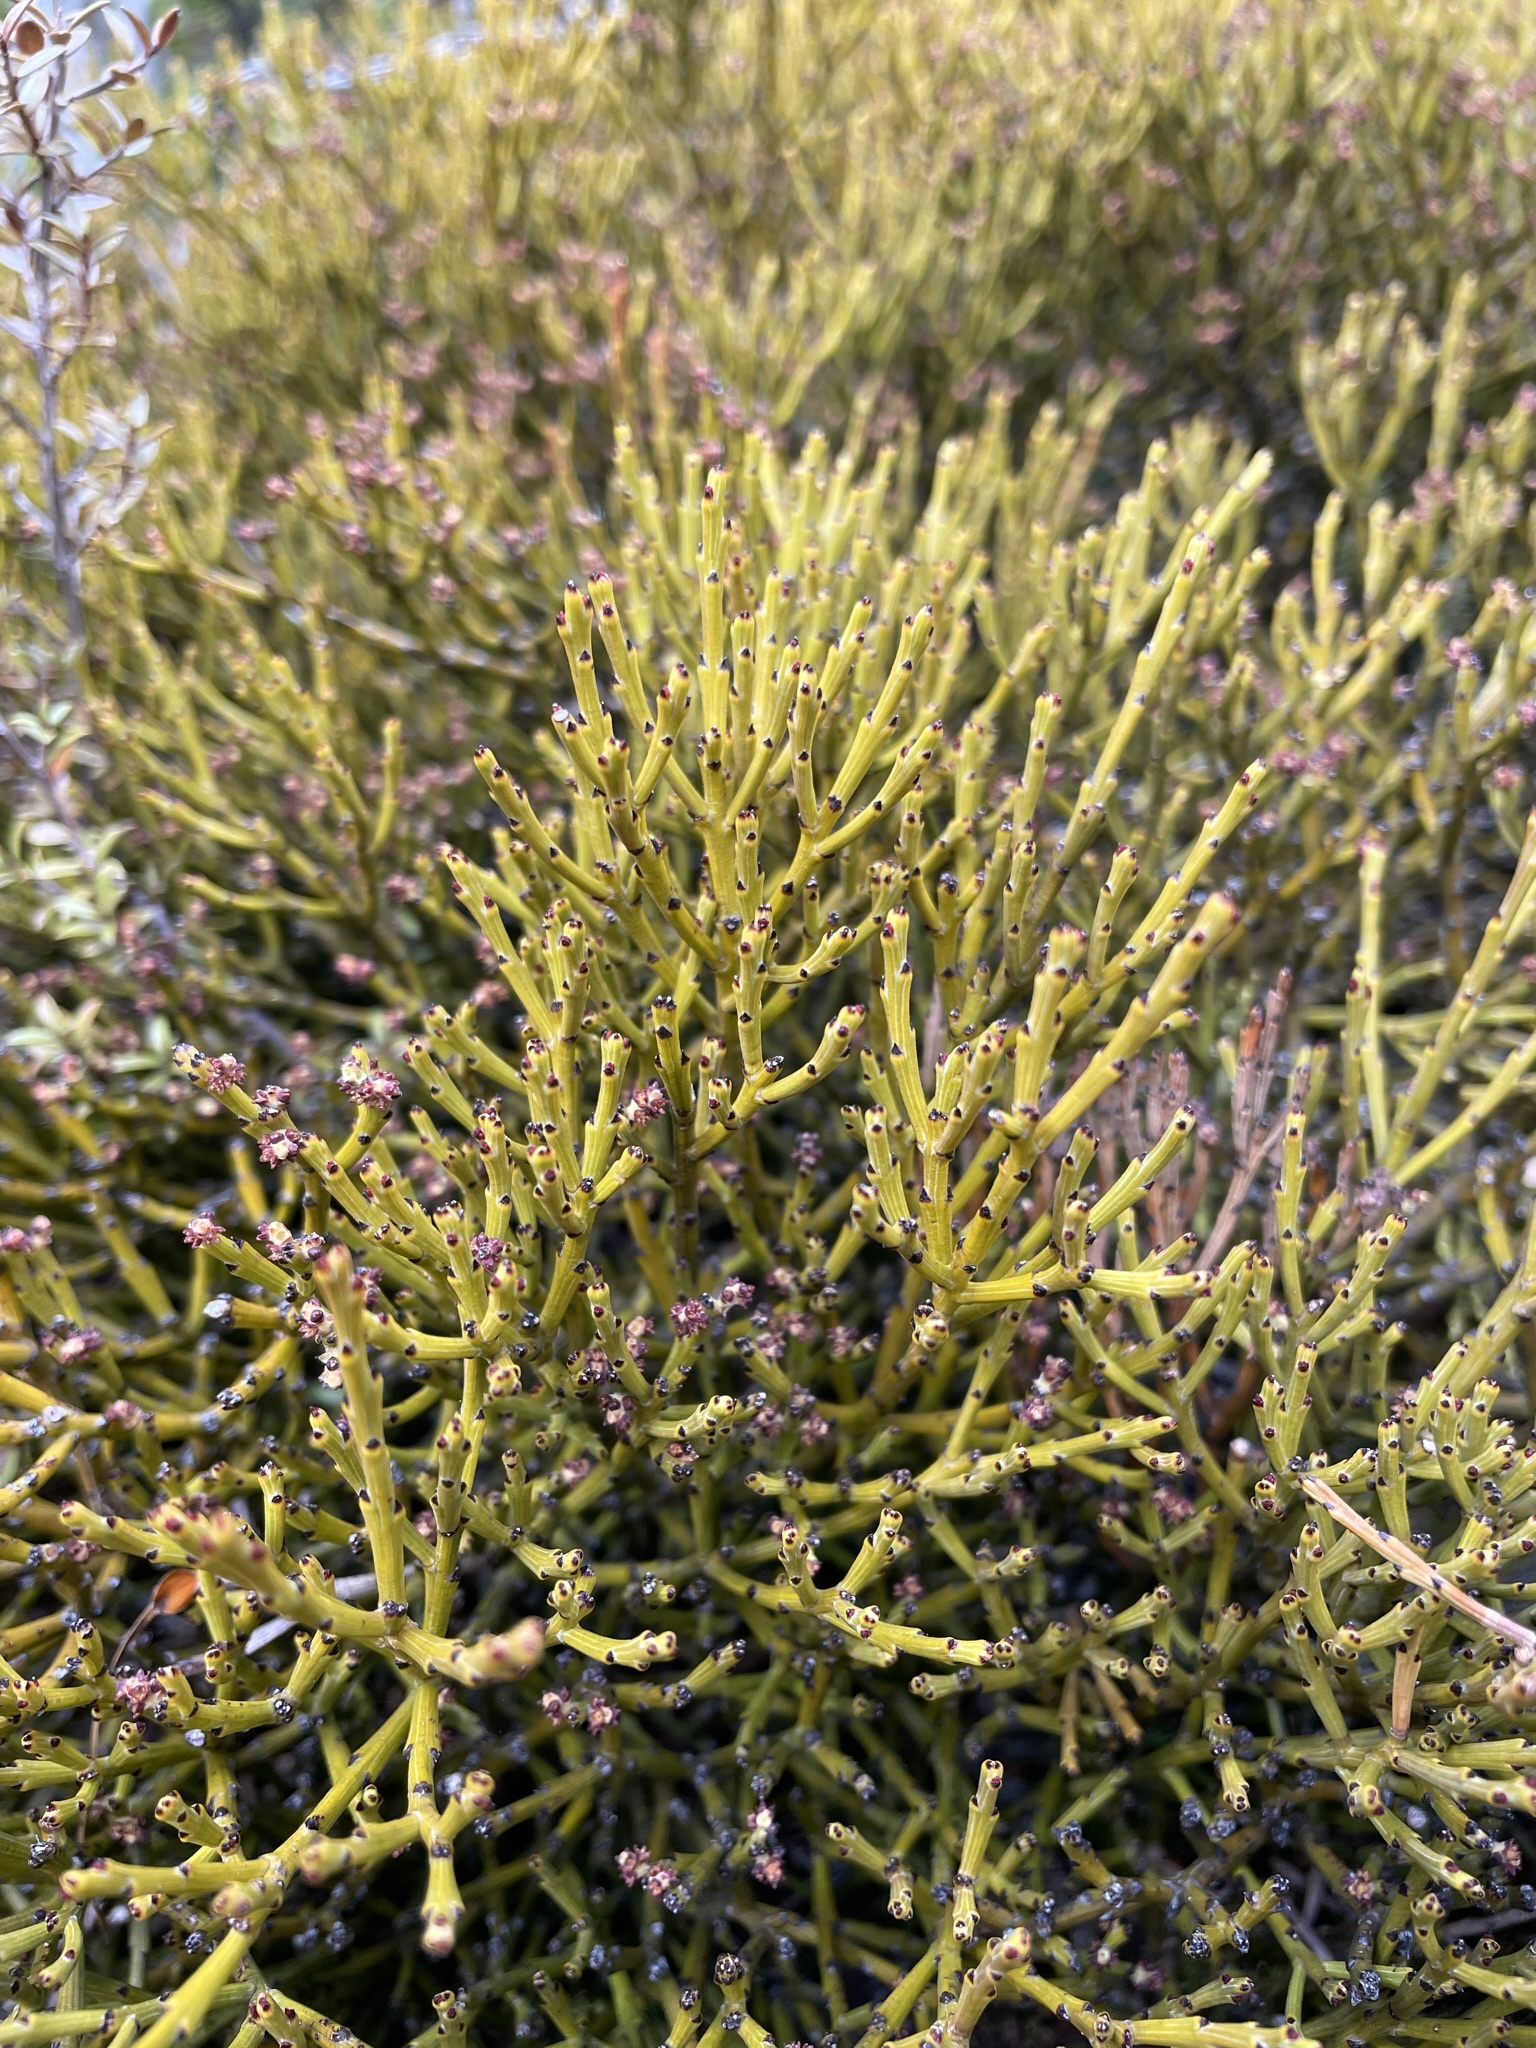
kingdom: Plantae
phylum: Tracheophyta
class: Magnoliopsida
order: Santalales
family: Santalaceae
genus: Exocarpos
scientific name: Exocarpos bidwillii
